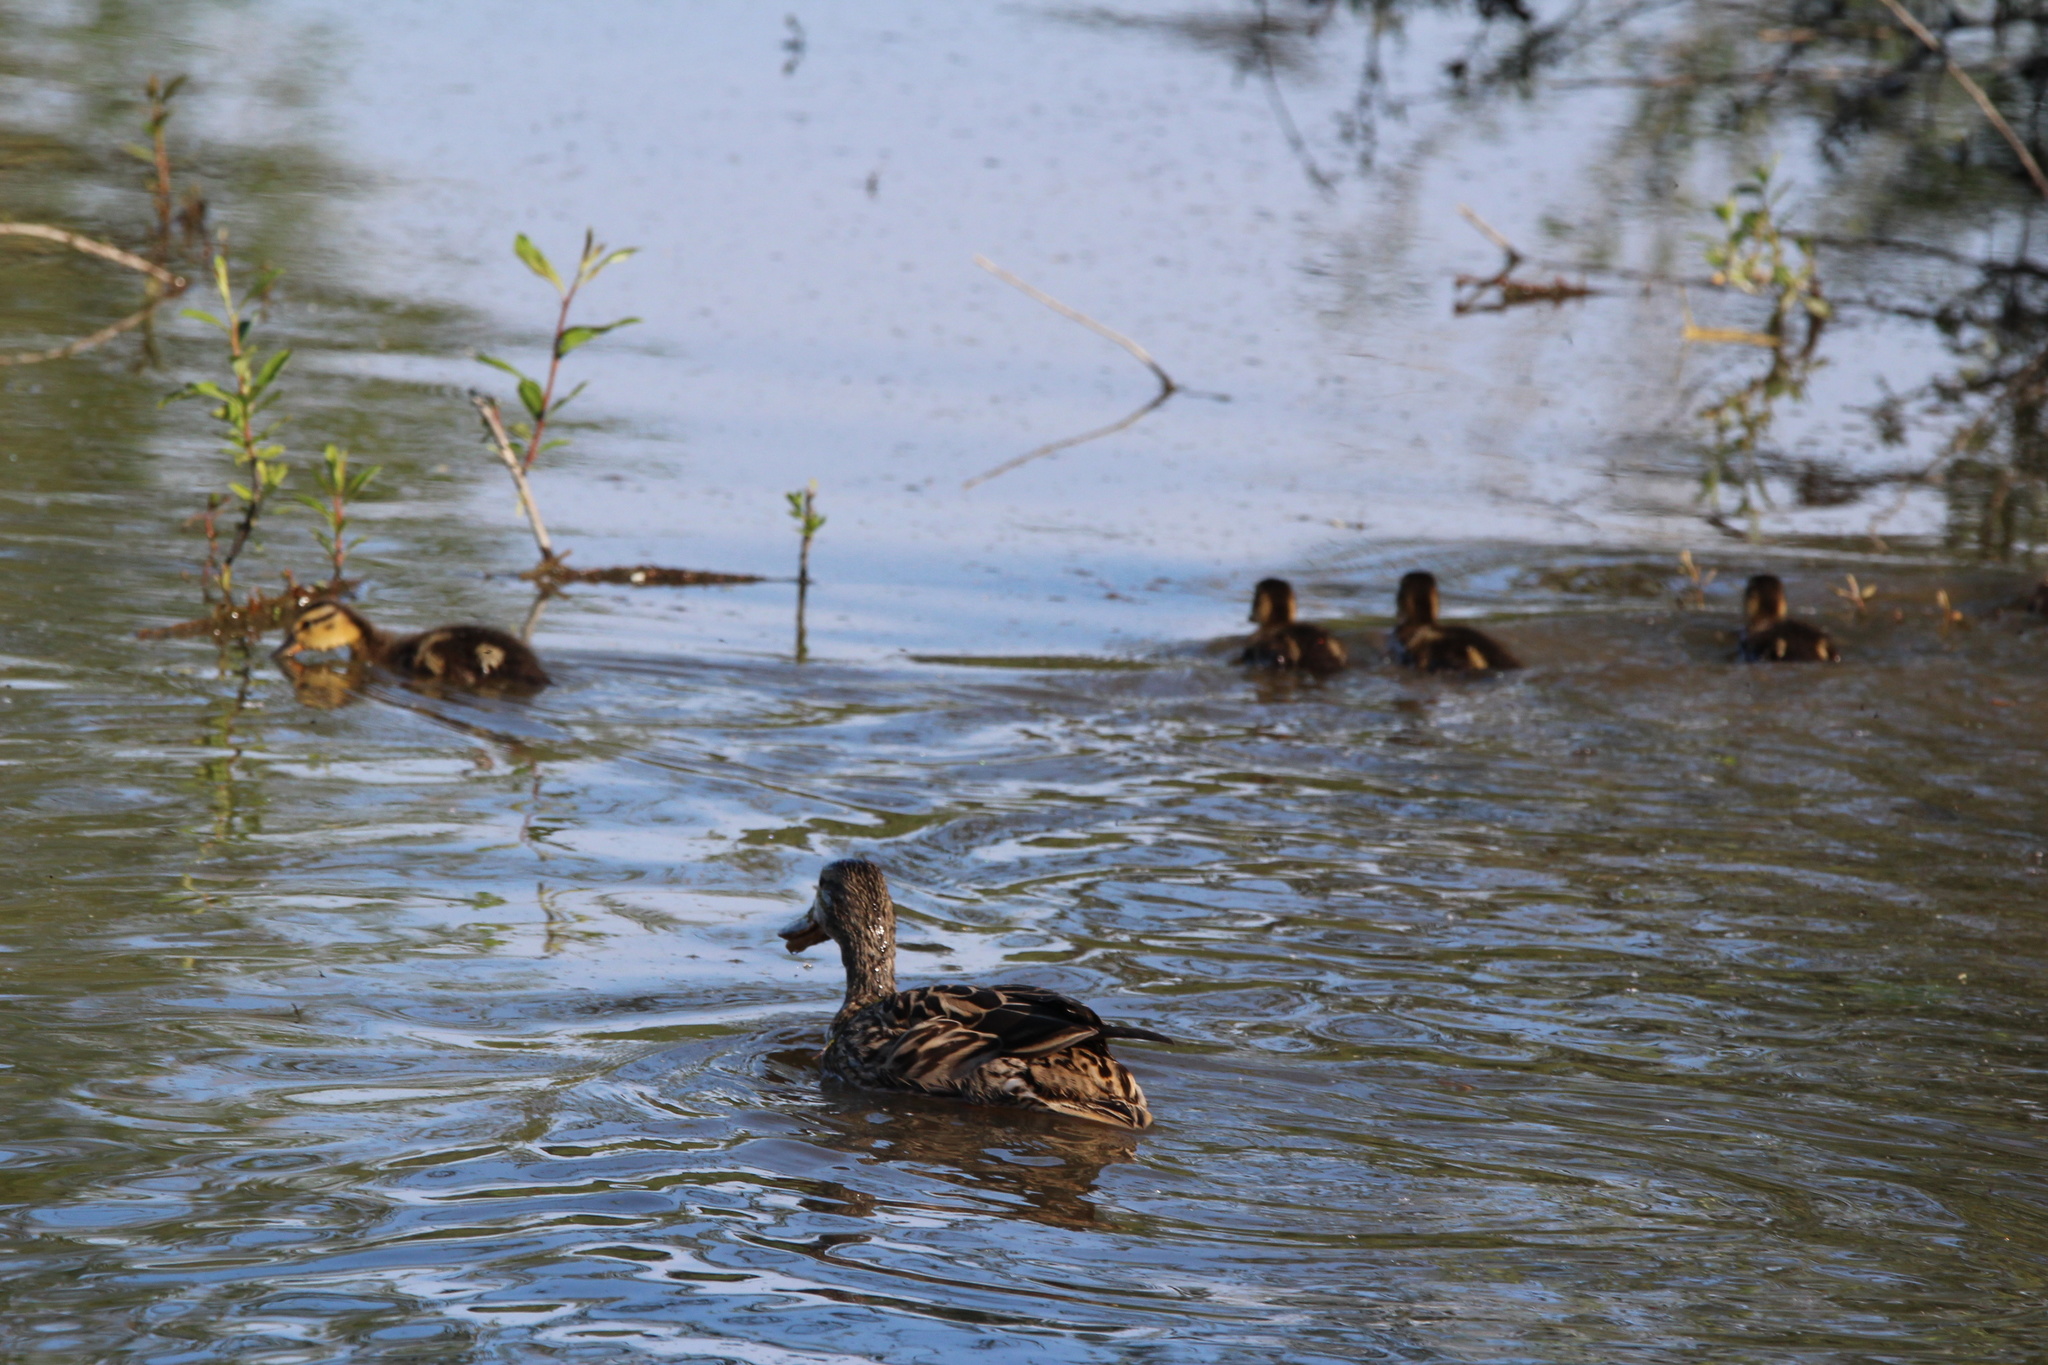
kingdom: Animalia
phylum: Chordata
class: Aves
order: Anseriformes
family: Anatidae
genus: Anas
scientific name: Anas platyrhynchos
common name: Mallard
